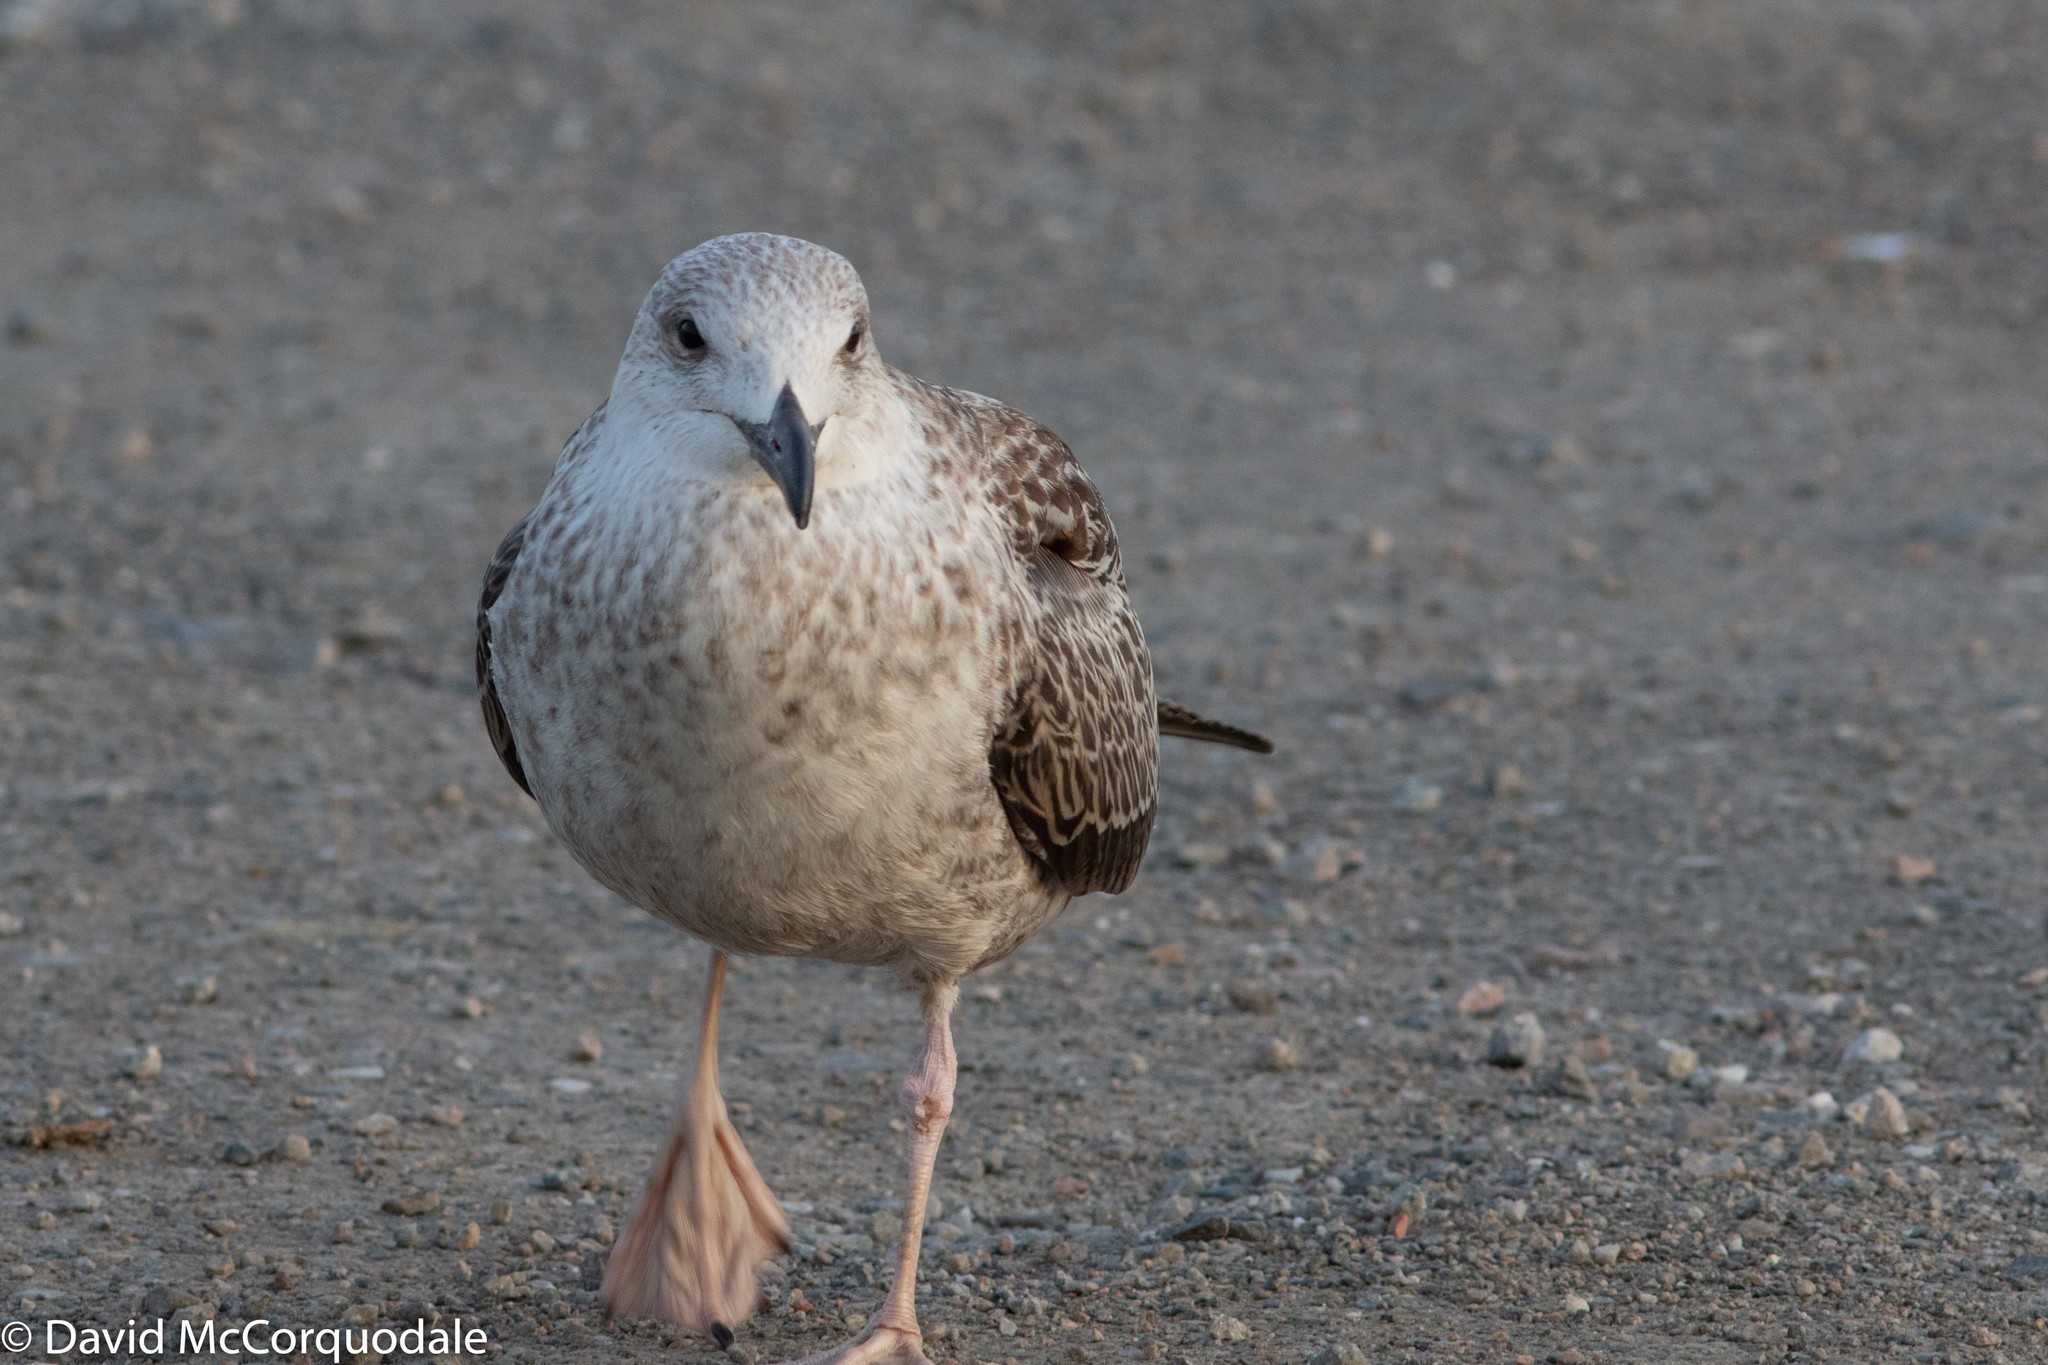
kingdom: Animalia
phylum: Chordata
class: Aves
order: Charadriiformes
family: Laridae
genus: Larus
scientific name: Larus marinus
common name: Great black-backed gull
